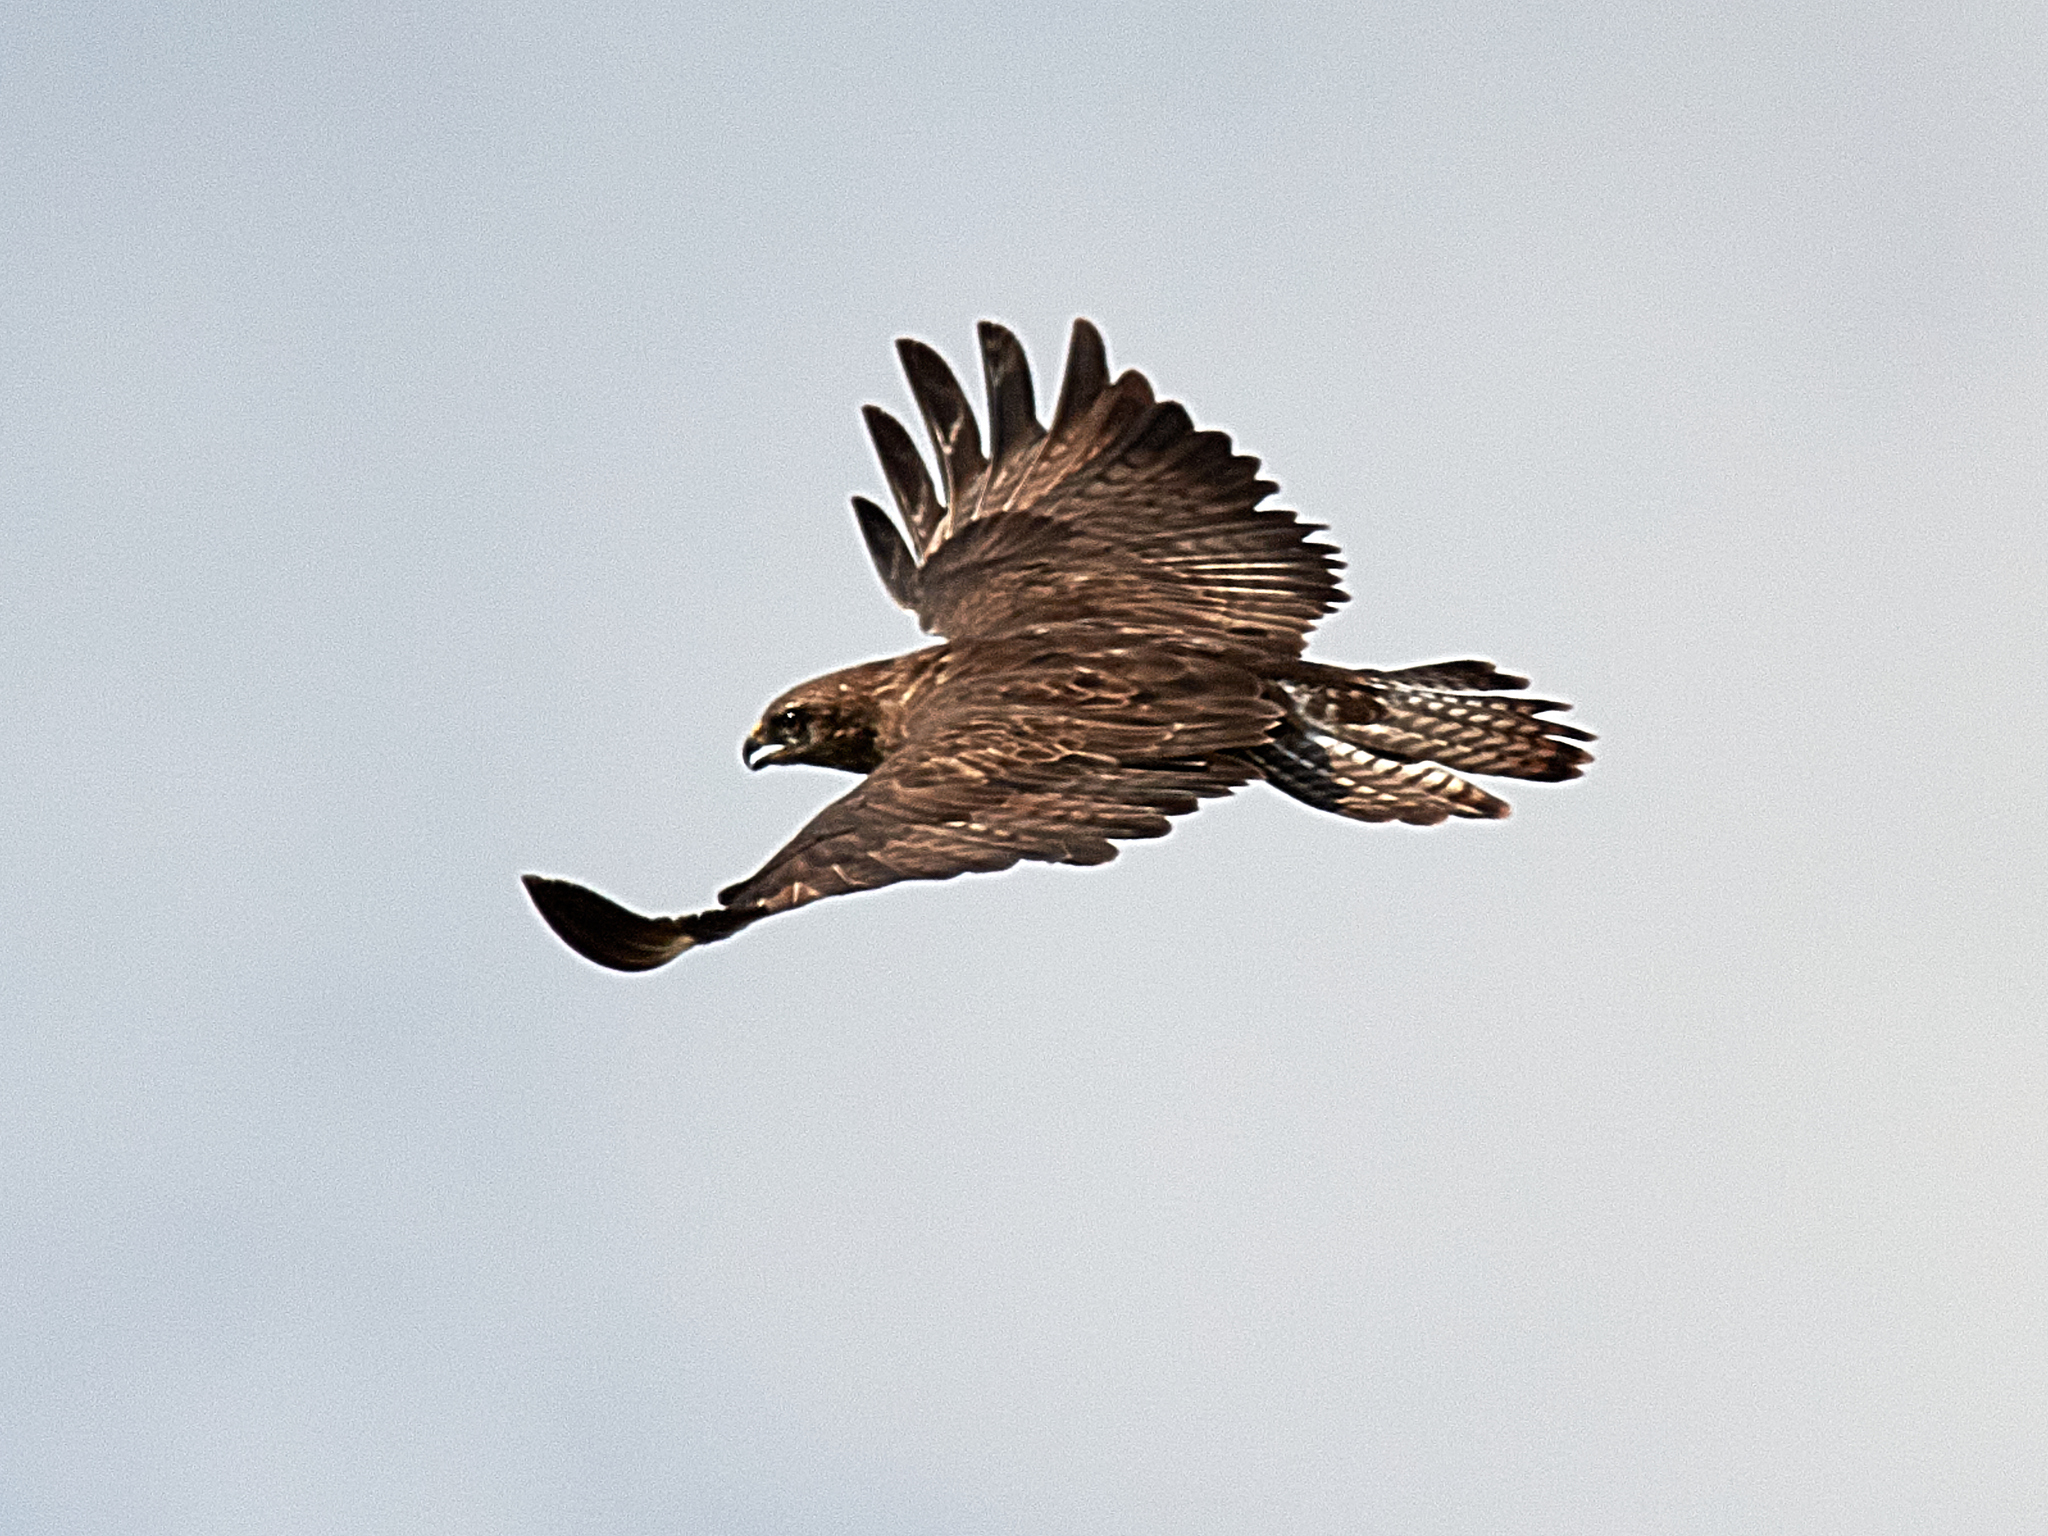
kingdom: Animalia
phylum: Chordata
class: Aves
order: Accipitriformes
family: Accipitridae
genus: Buteo
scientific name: Buteo buteo
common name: Common buzzard
